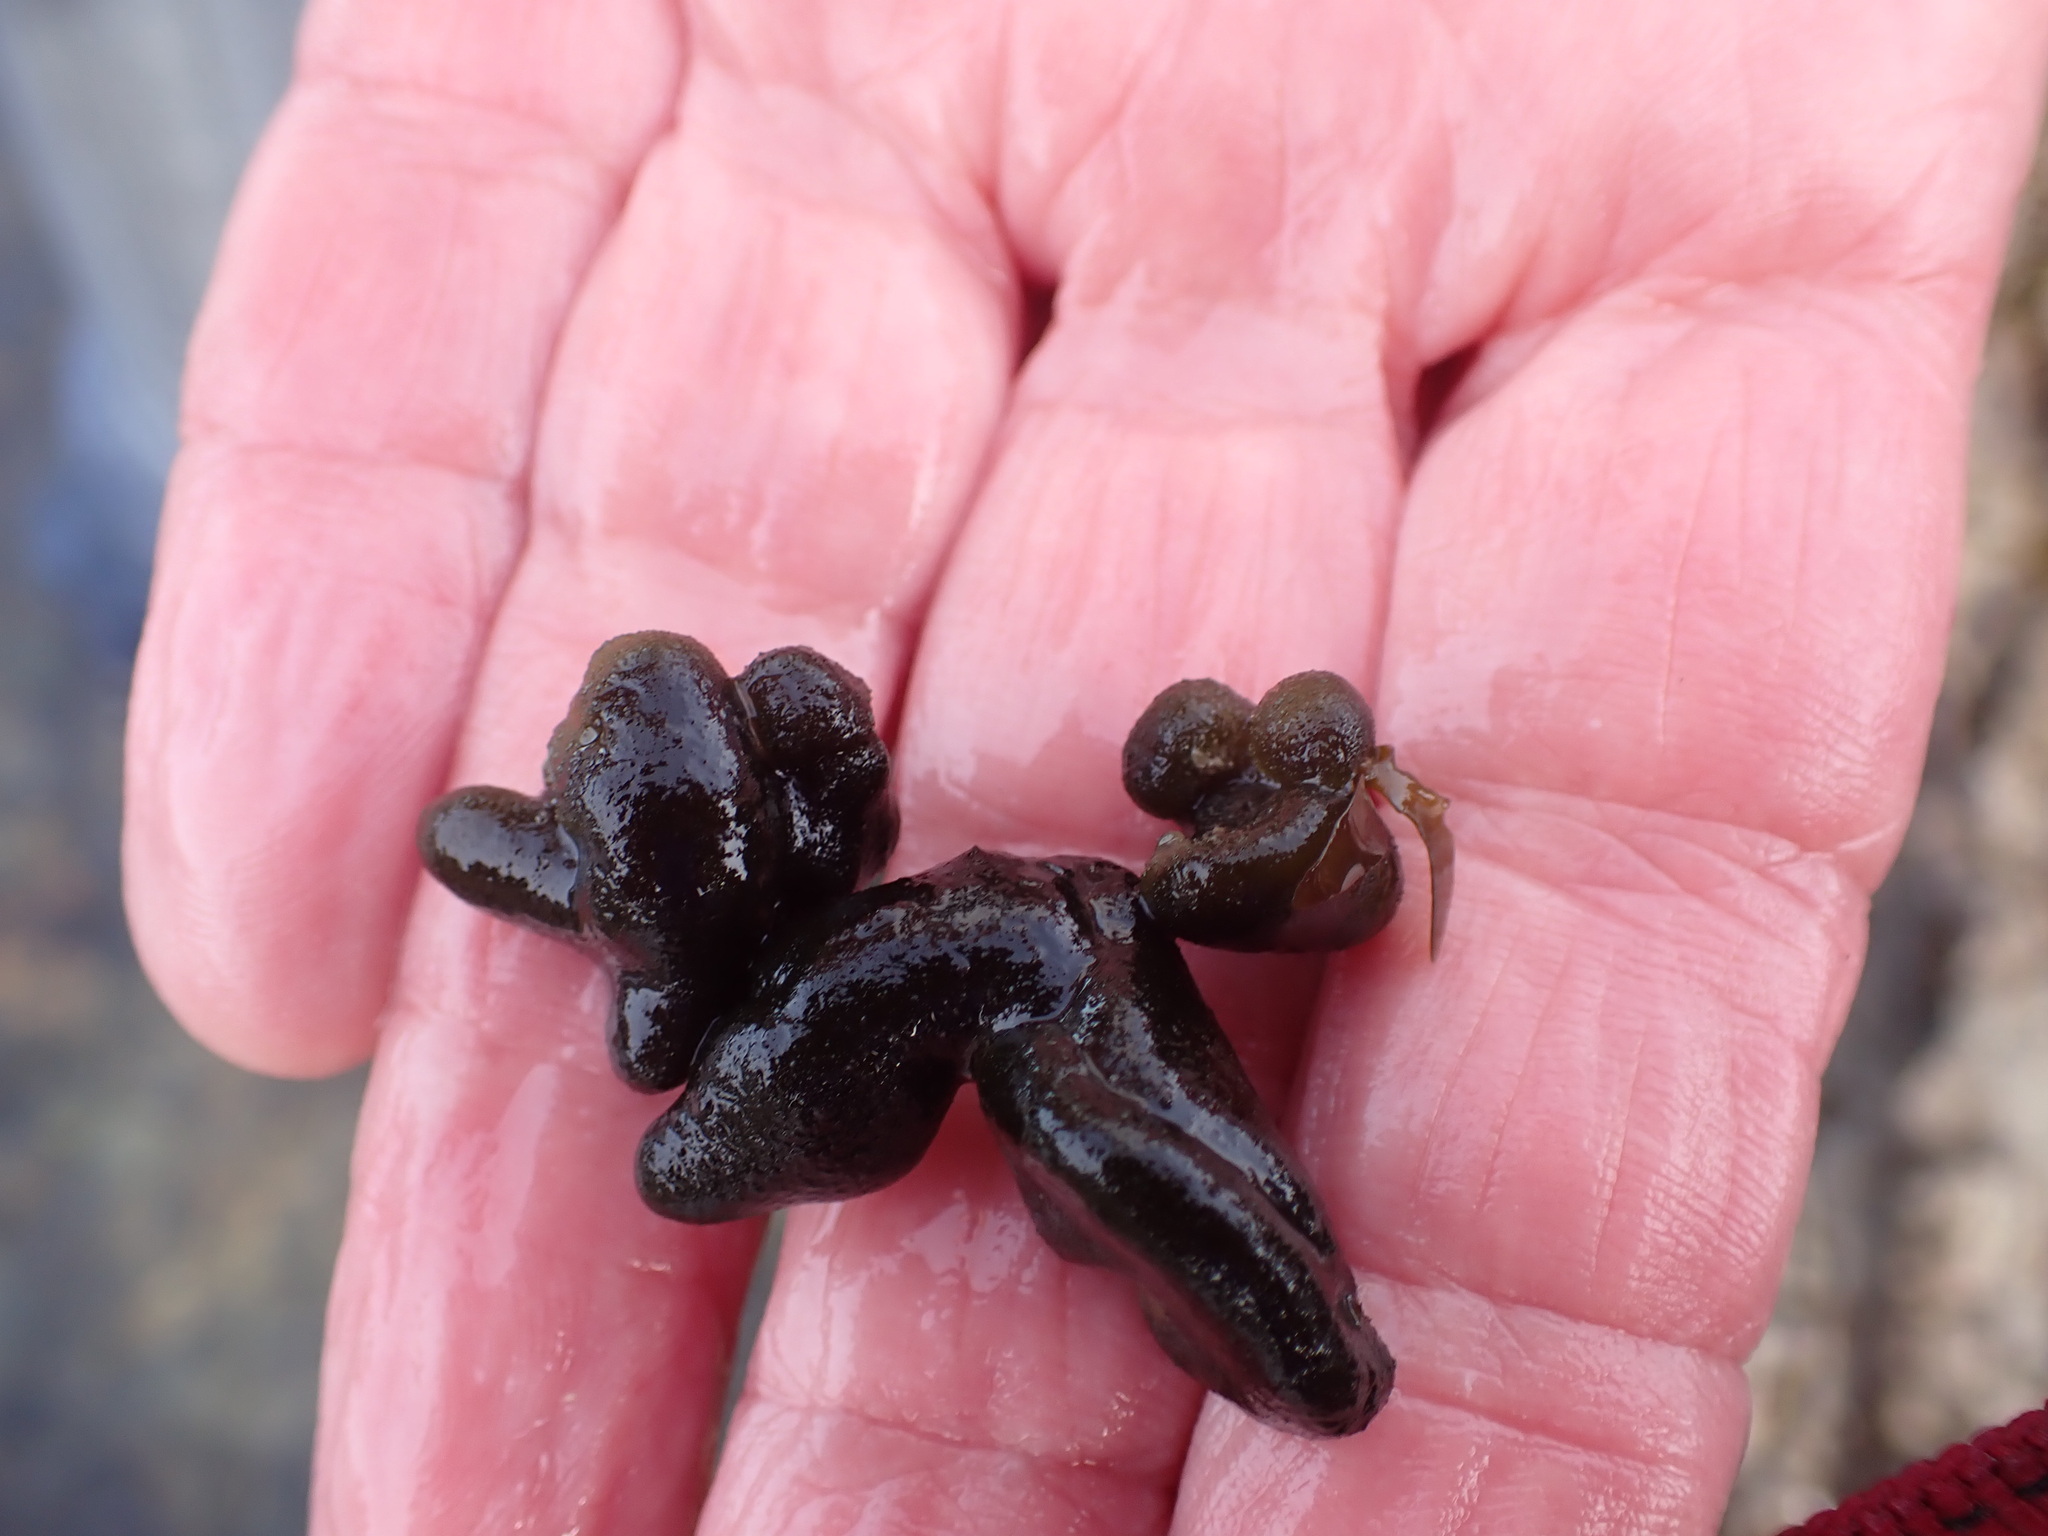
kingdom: Plantae
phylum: Chlorophyta
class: Ulvophyceae
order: Bryopsidales
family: Codiaceae
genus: Codium
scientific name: Codium convolutum
